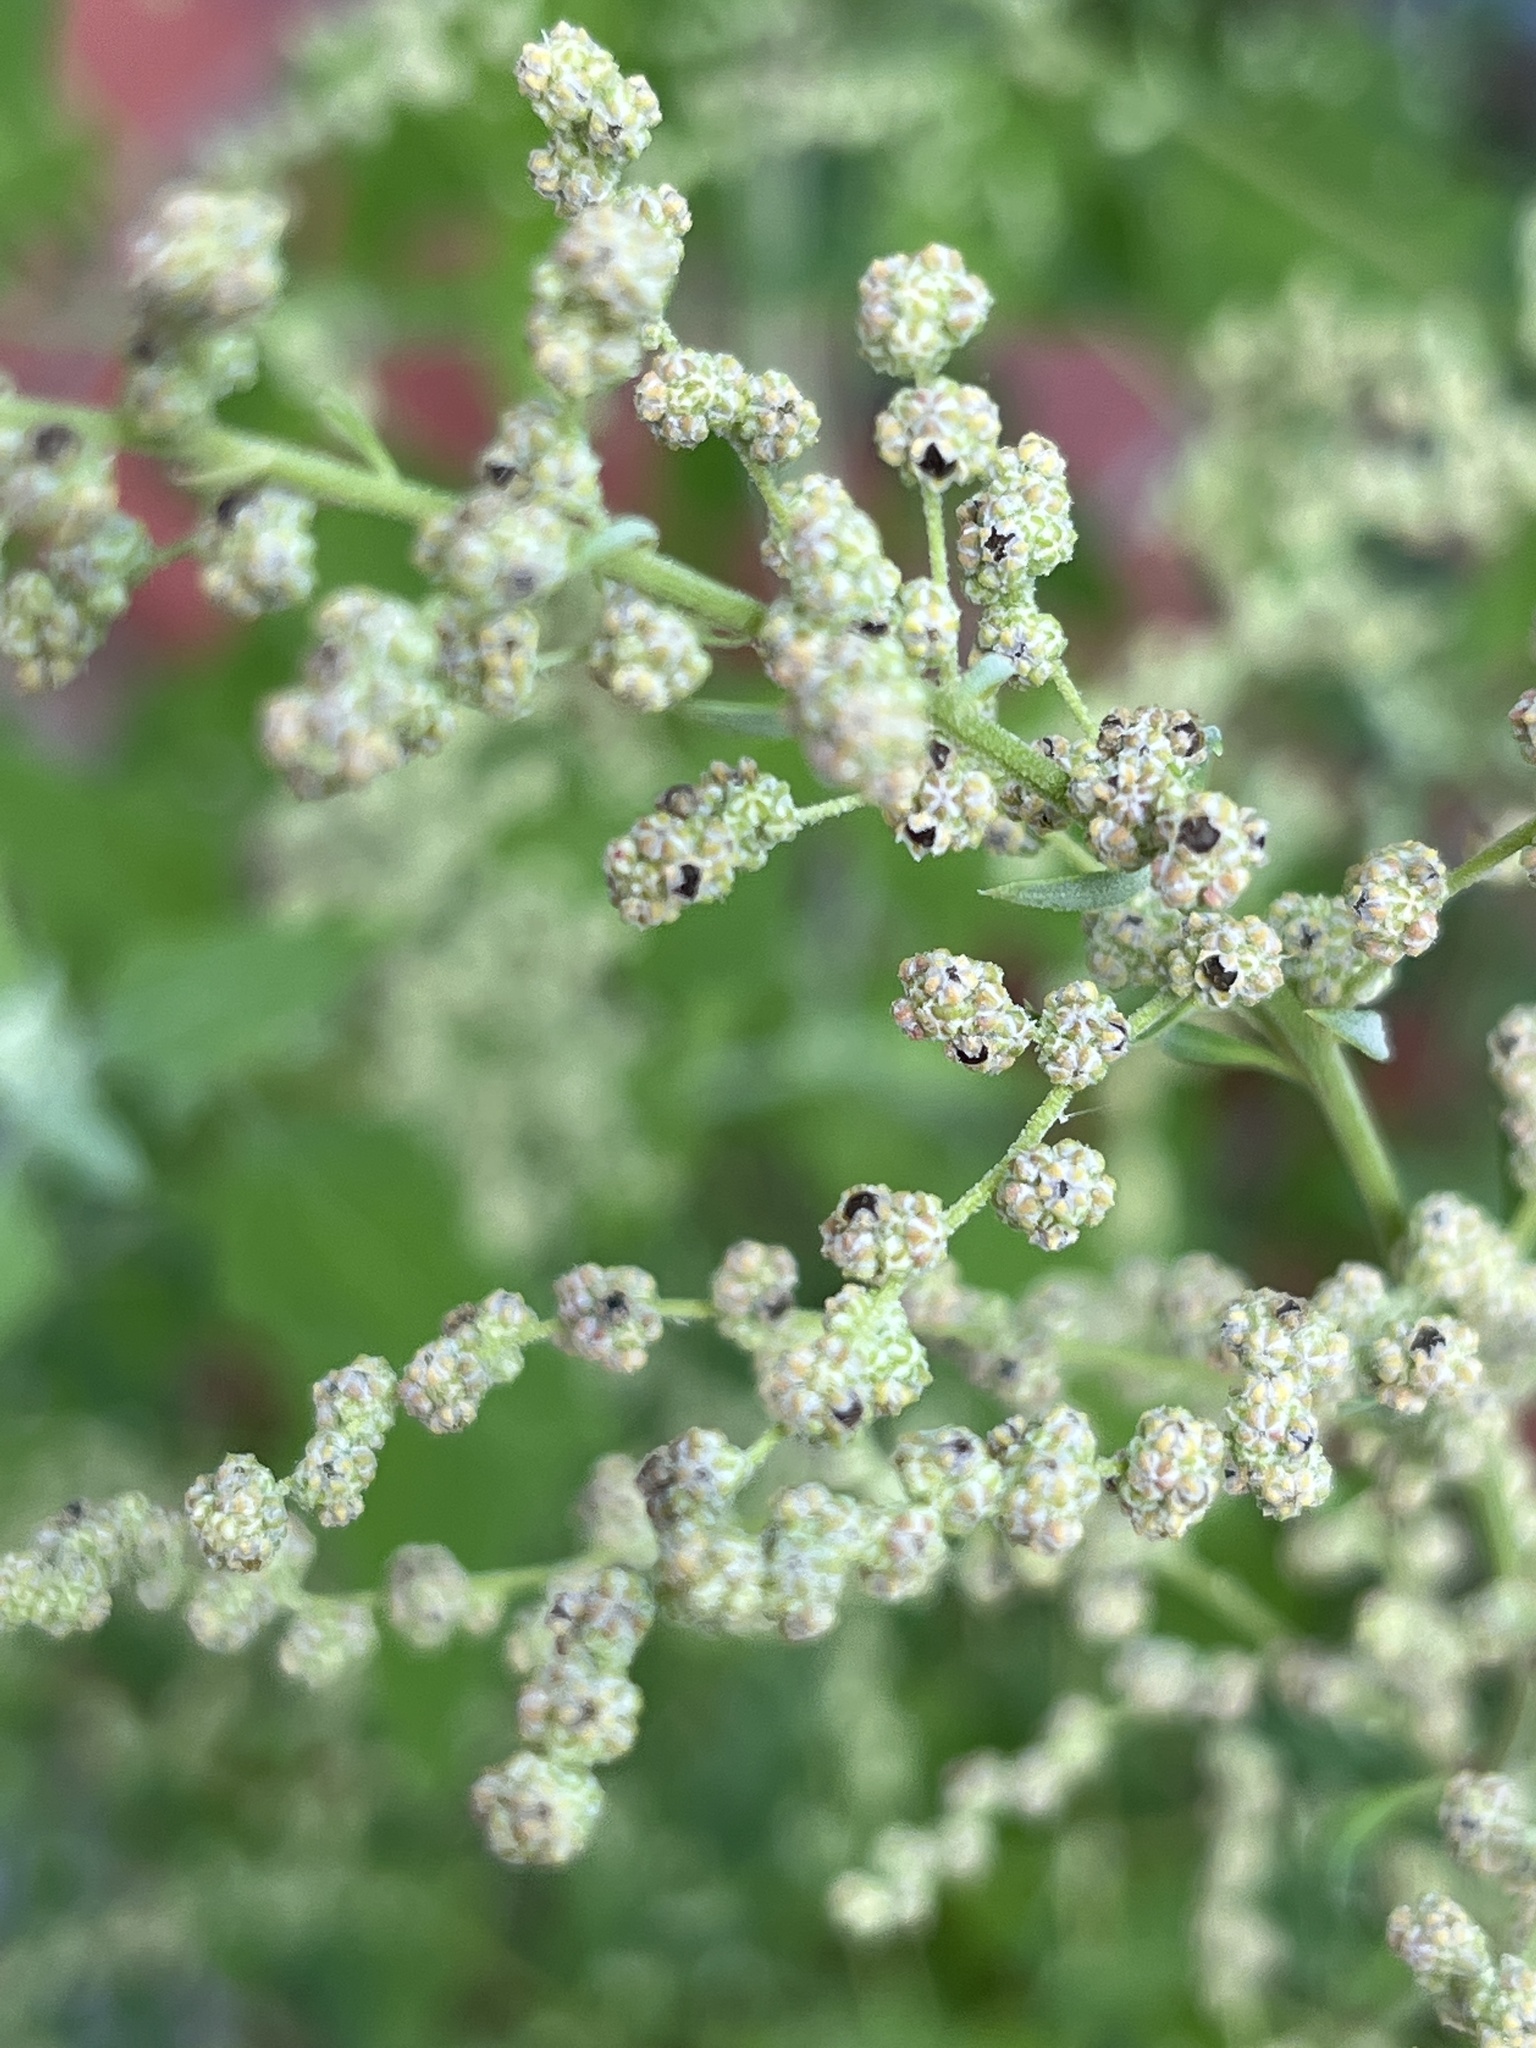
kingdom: Plantae
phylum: Tracheophyta
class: Magnoliopsida
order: Caryophyllales
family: Amaranthaceae
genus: Chenopodium
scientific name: Chenopodium album
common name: Fat-hen
